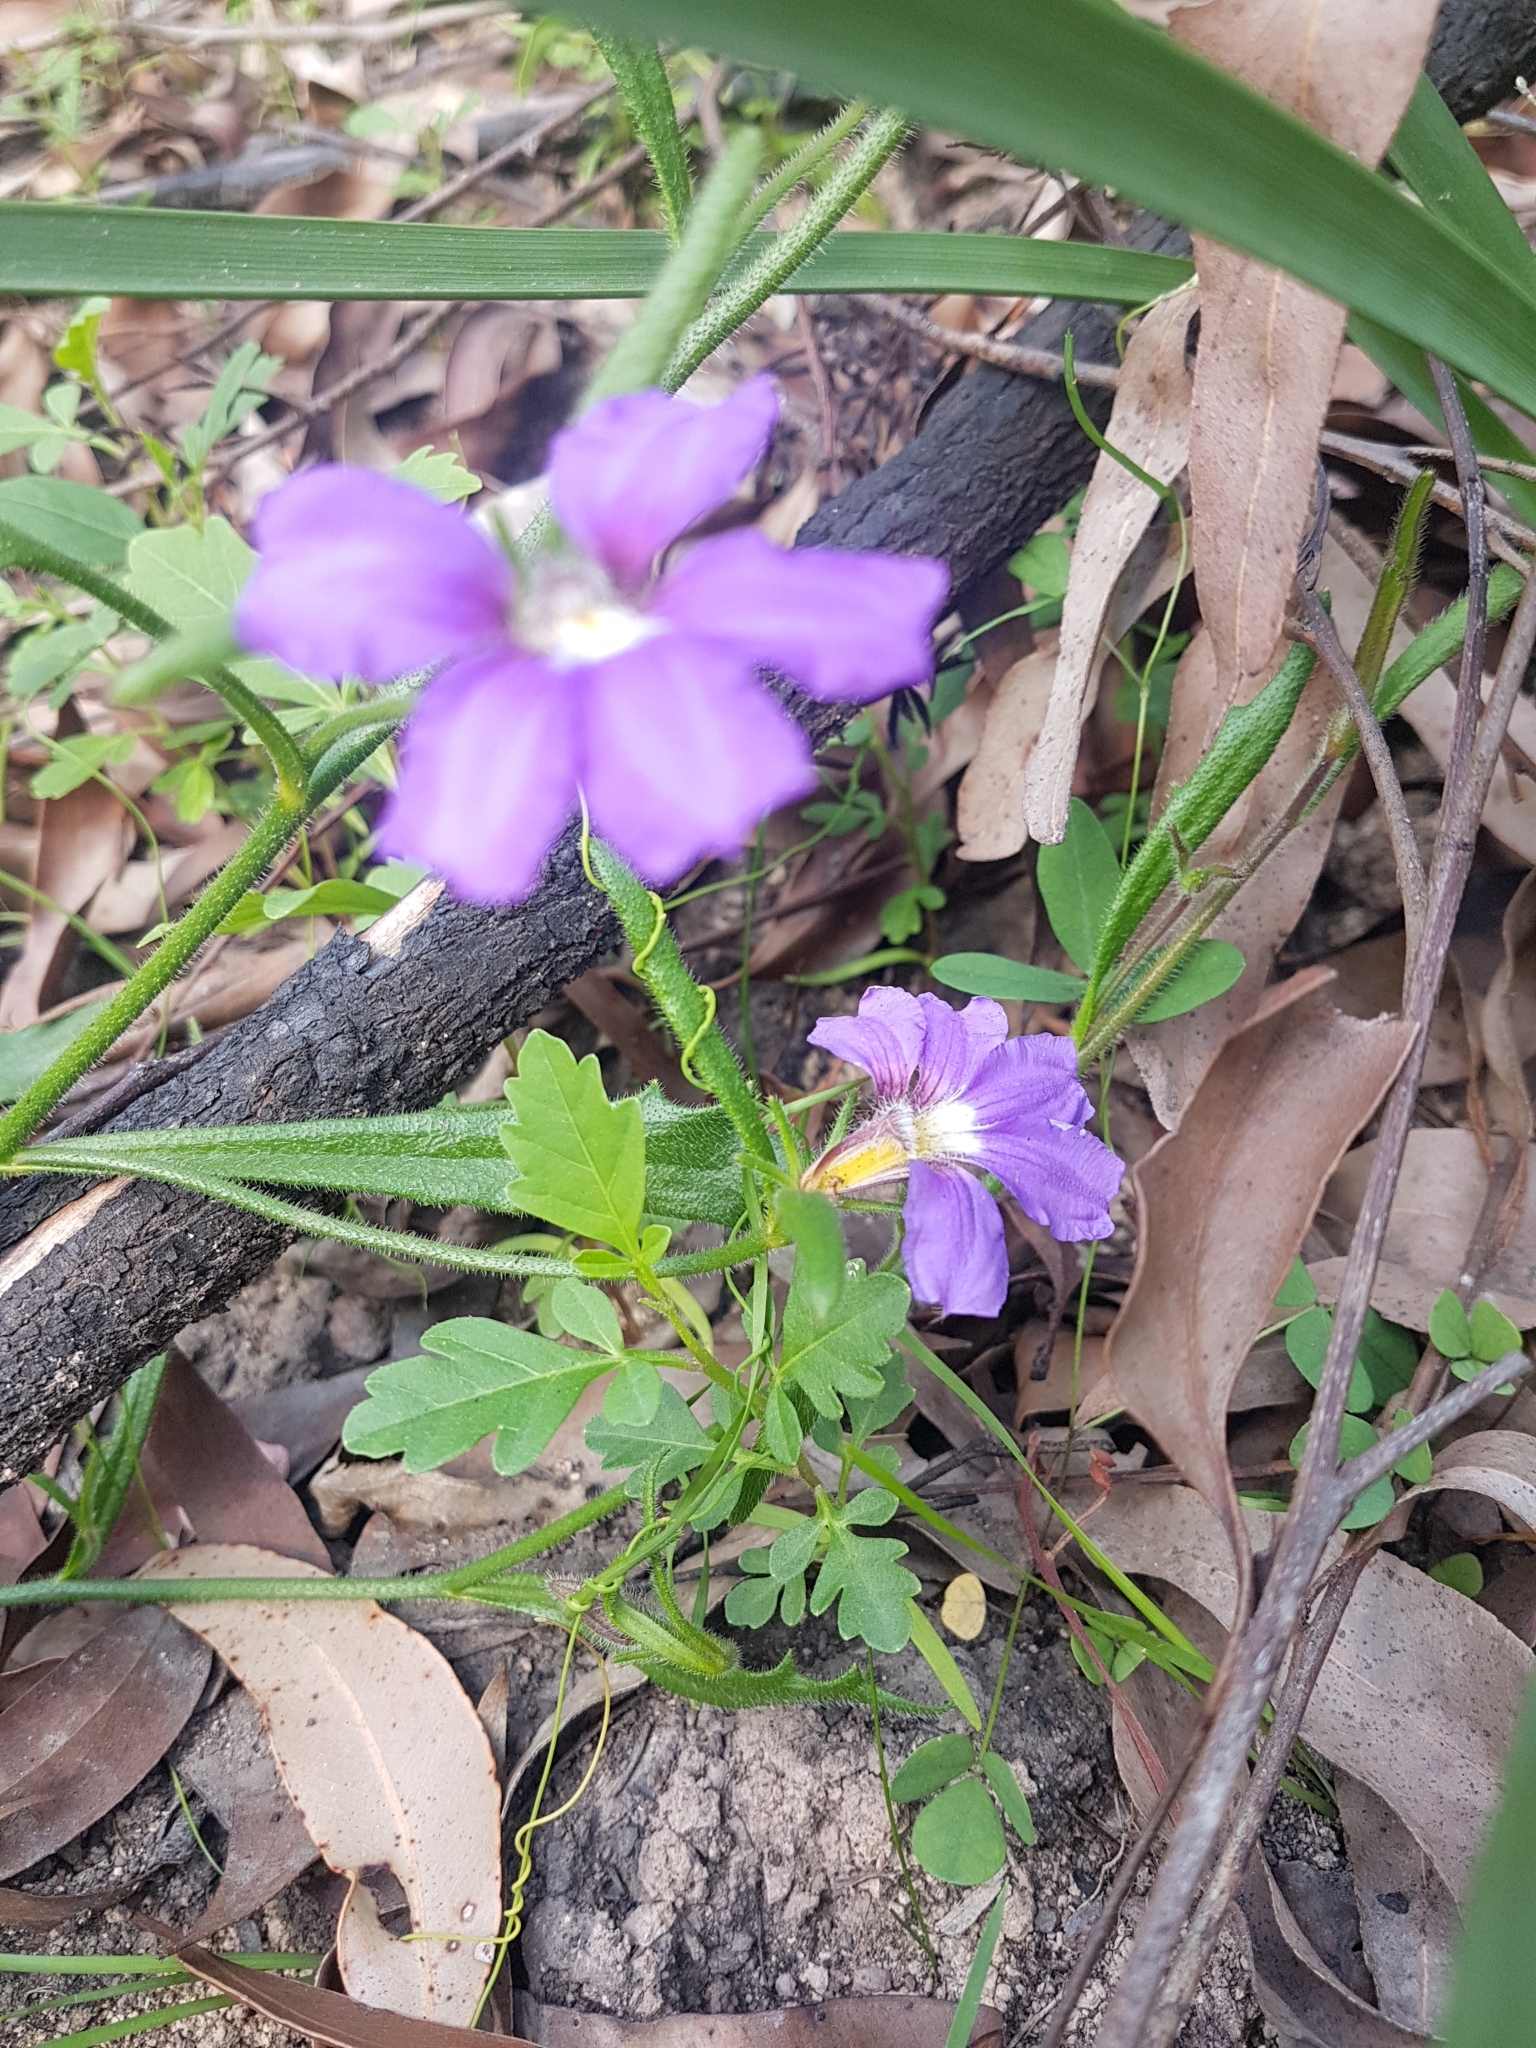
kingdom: Plantae
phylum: Tracheophyta
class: Magnoliopsida
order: Asterales
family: Goodeniaceae
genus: Scaevola
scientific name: Scaevola ramosissima
